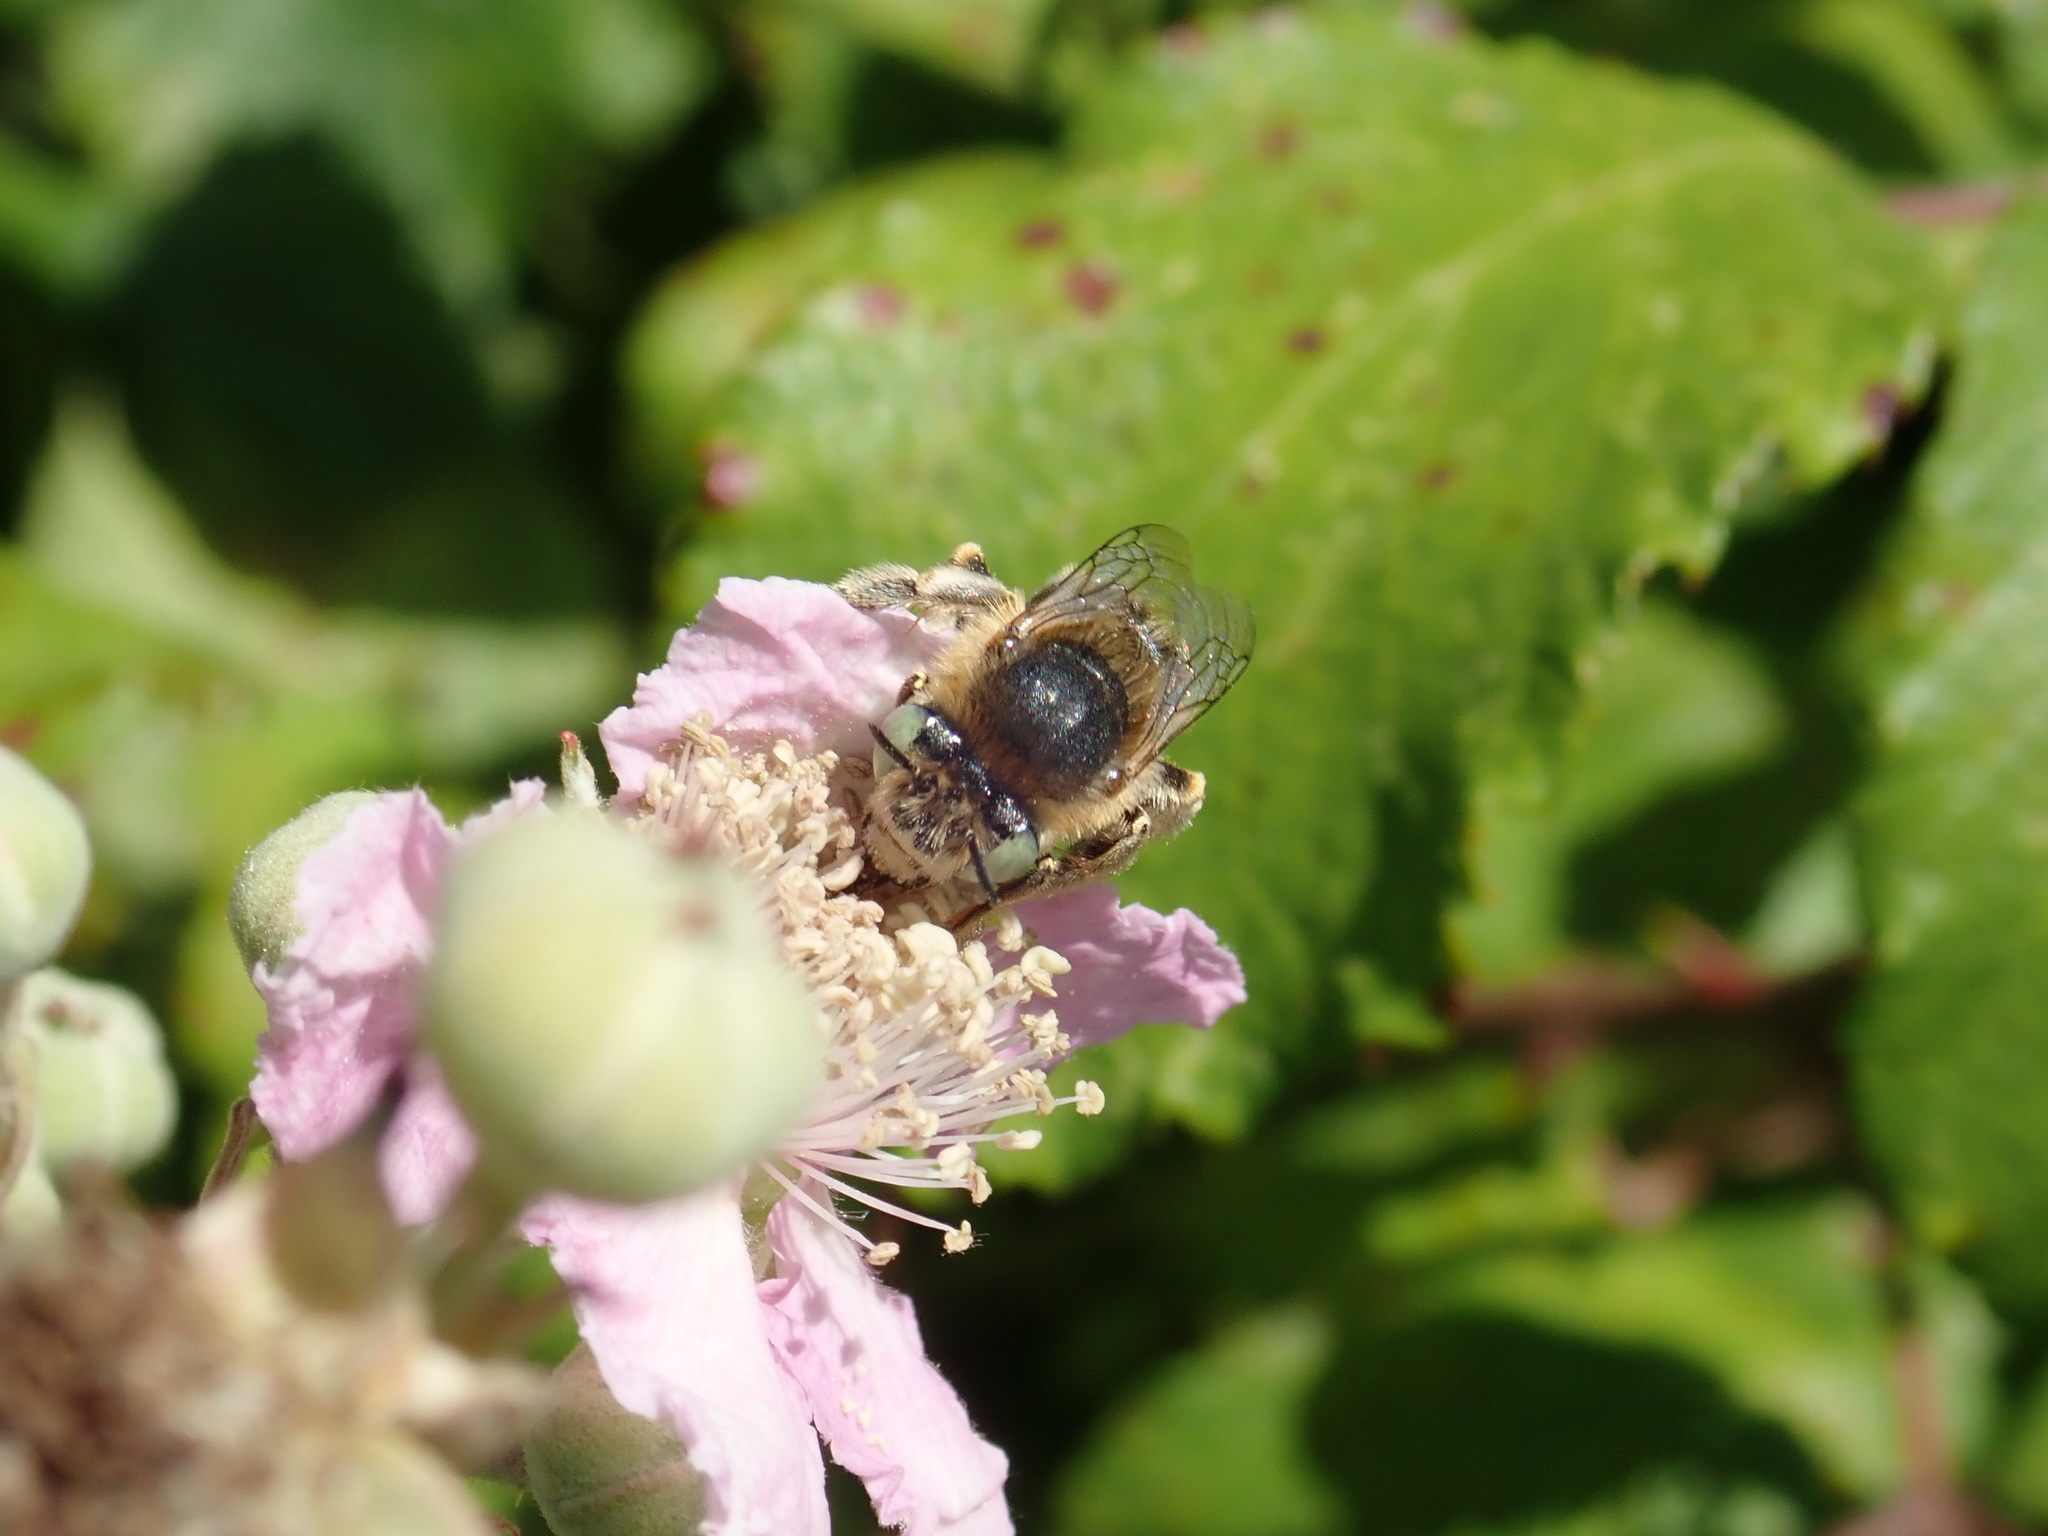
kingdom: Animalia
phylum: Arthropoda
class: Insecta
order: Hymenoptera
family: Apidae
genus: Anthophora
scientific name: Anthophora bimaculata
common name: Green-eyed flower bee
